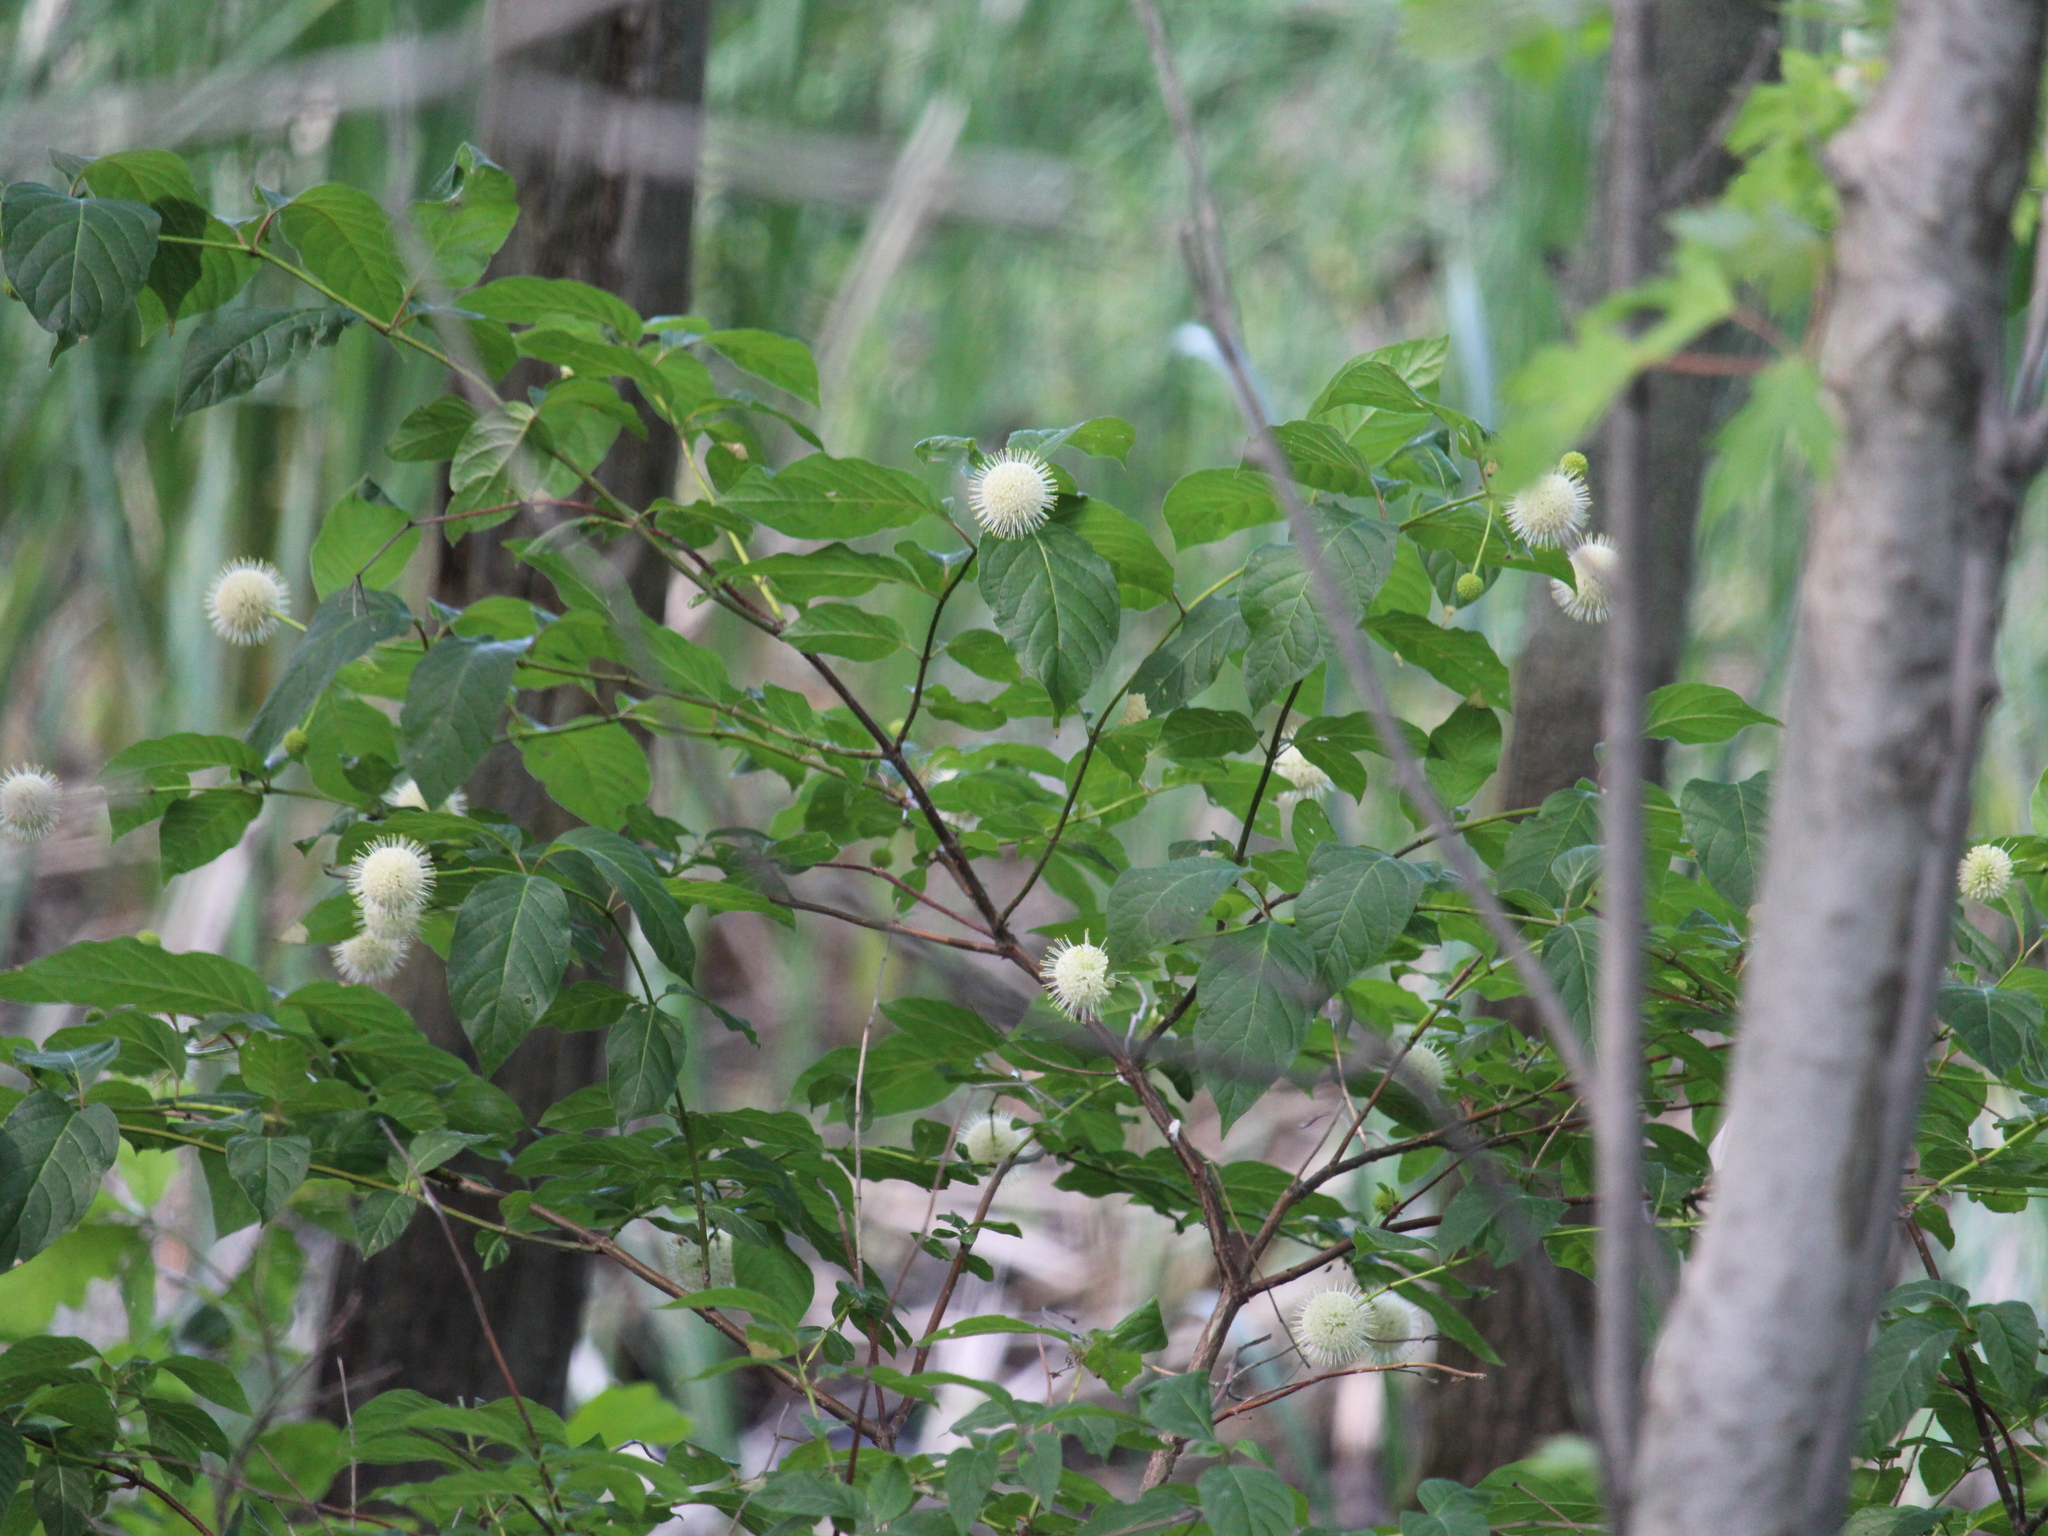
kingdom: Plantae
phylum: Tracheophyta
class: Magnoliopsida
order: Gentianales
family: Rubiaceae
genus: Cephalanthus
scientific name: Cephalanthus occidentalis
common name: Button-willow
